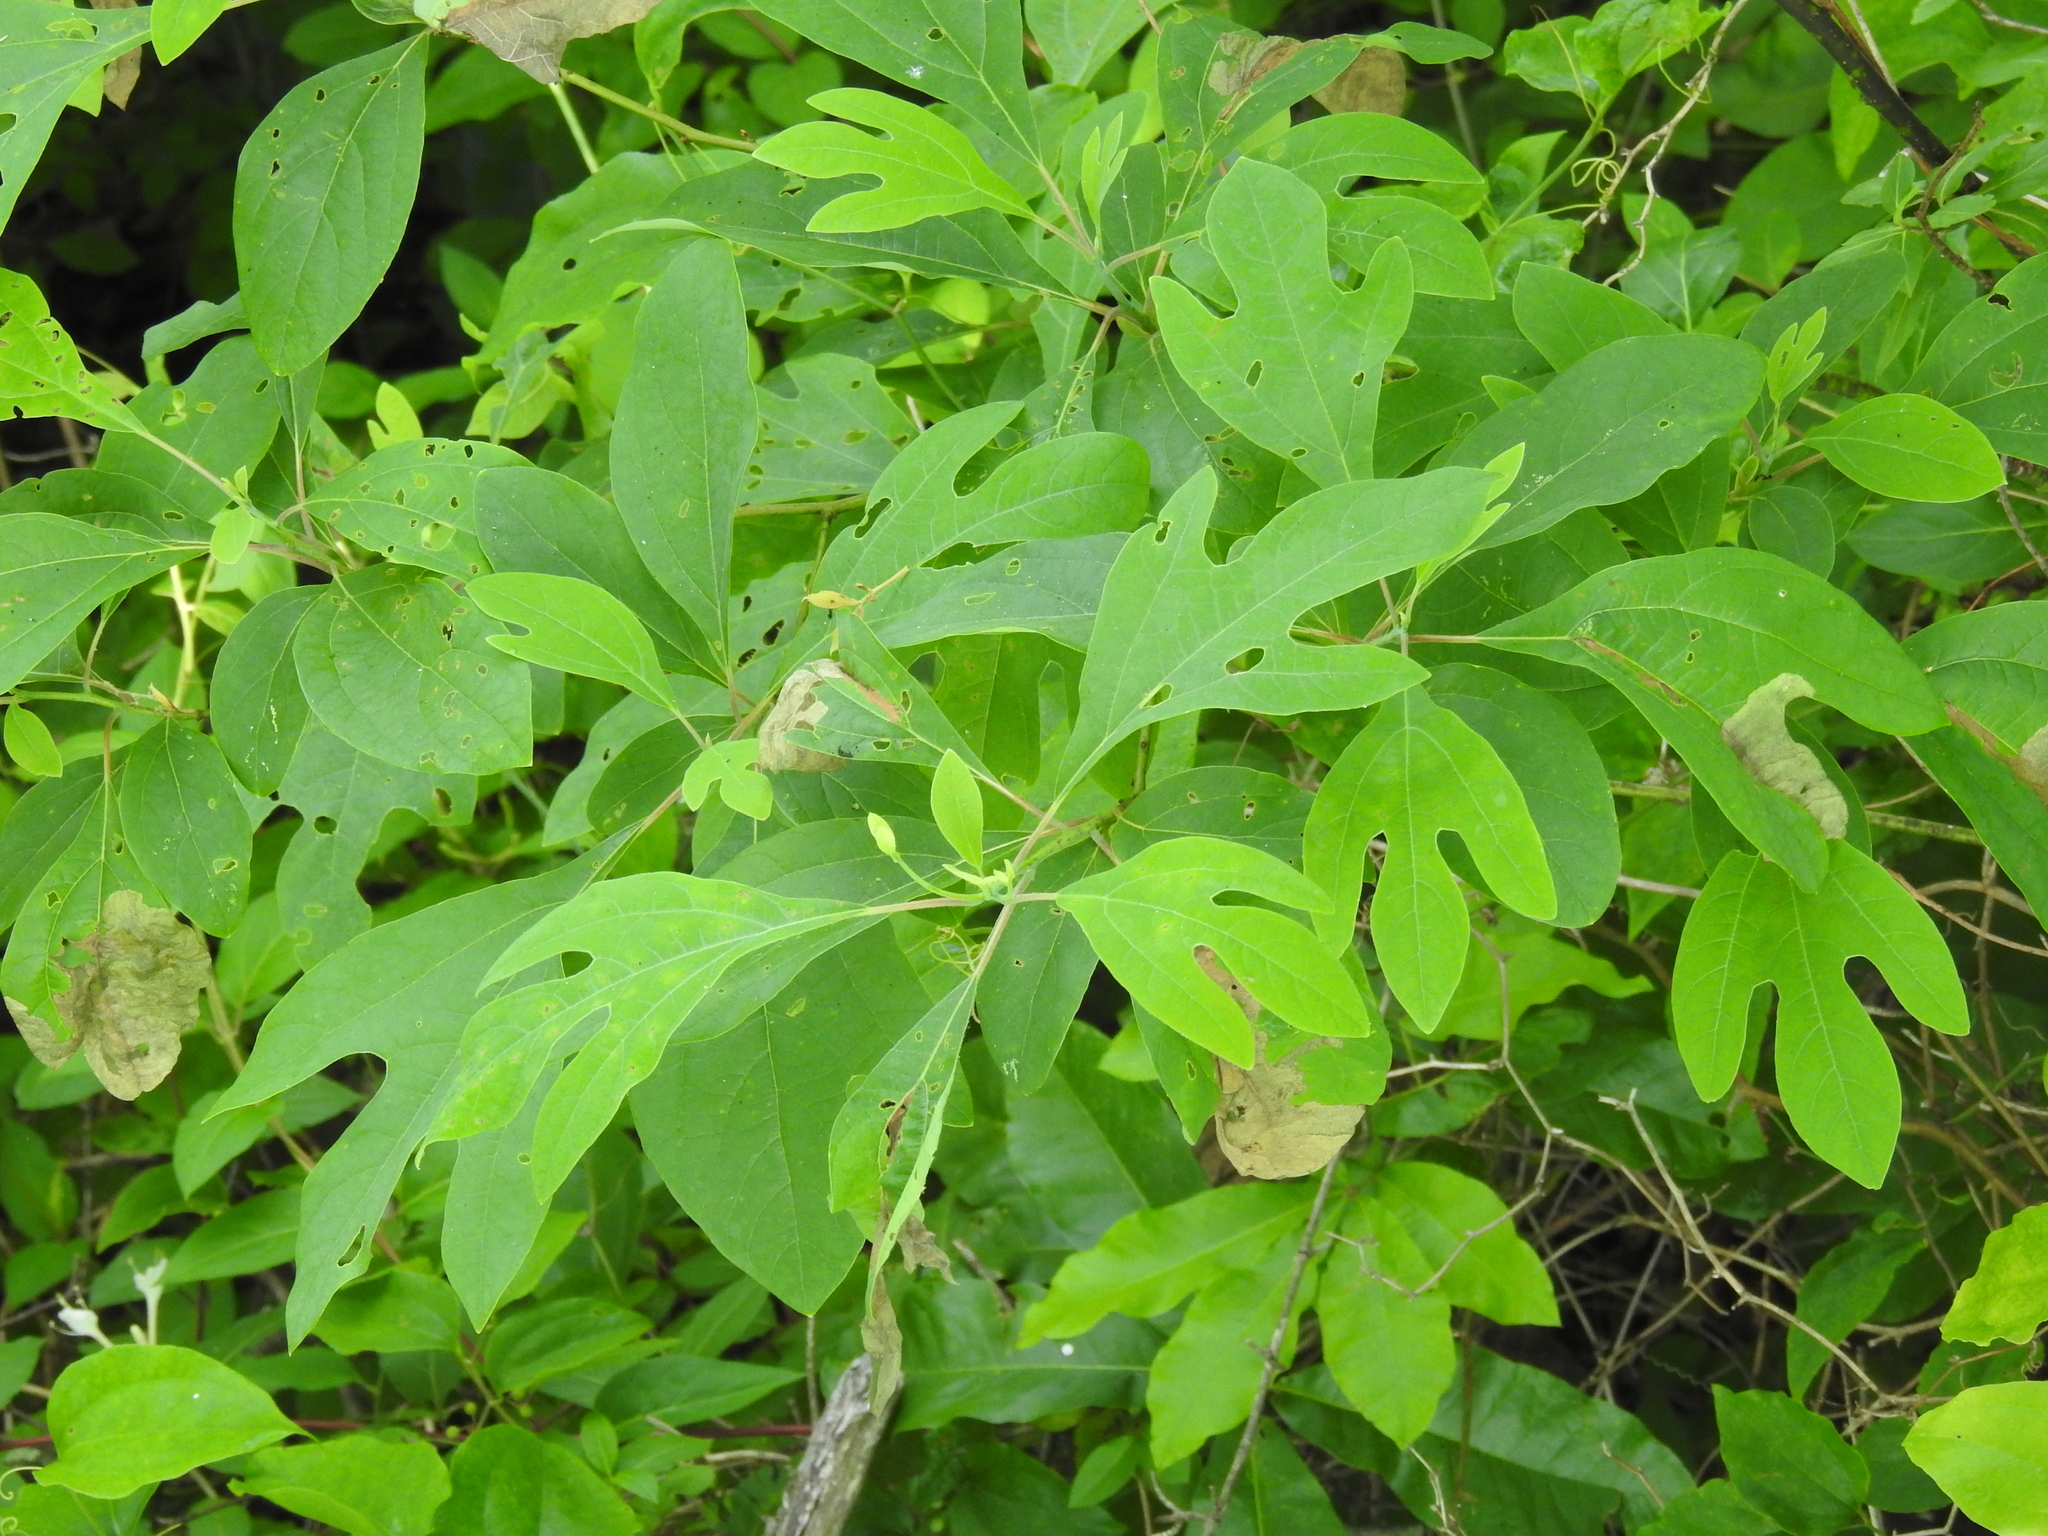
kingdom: Plantae
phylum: Tracheophyta
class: Magnoliopsida
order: Laurales
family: Lauraceae
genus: Sassafras
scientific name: Sassafras albidum
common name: Sassafras
